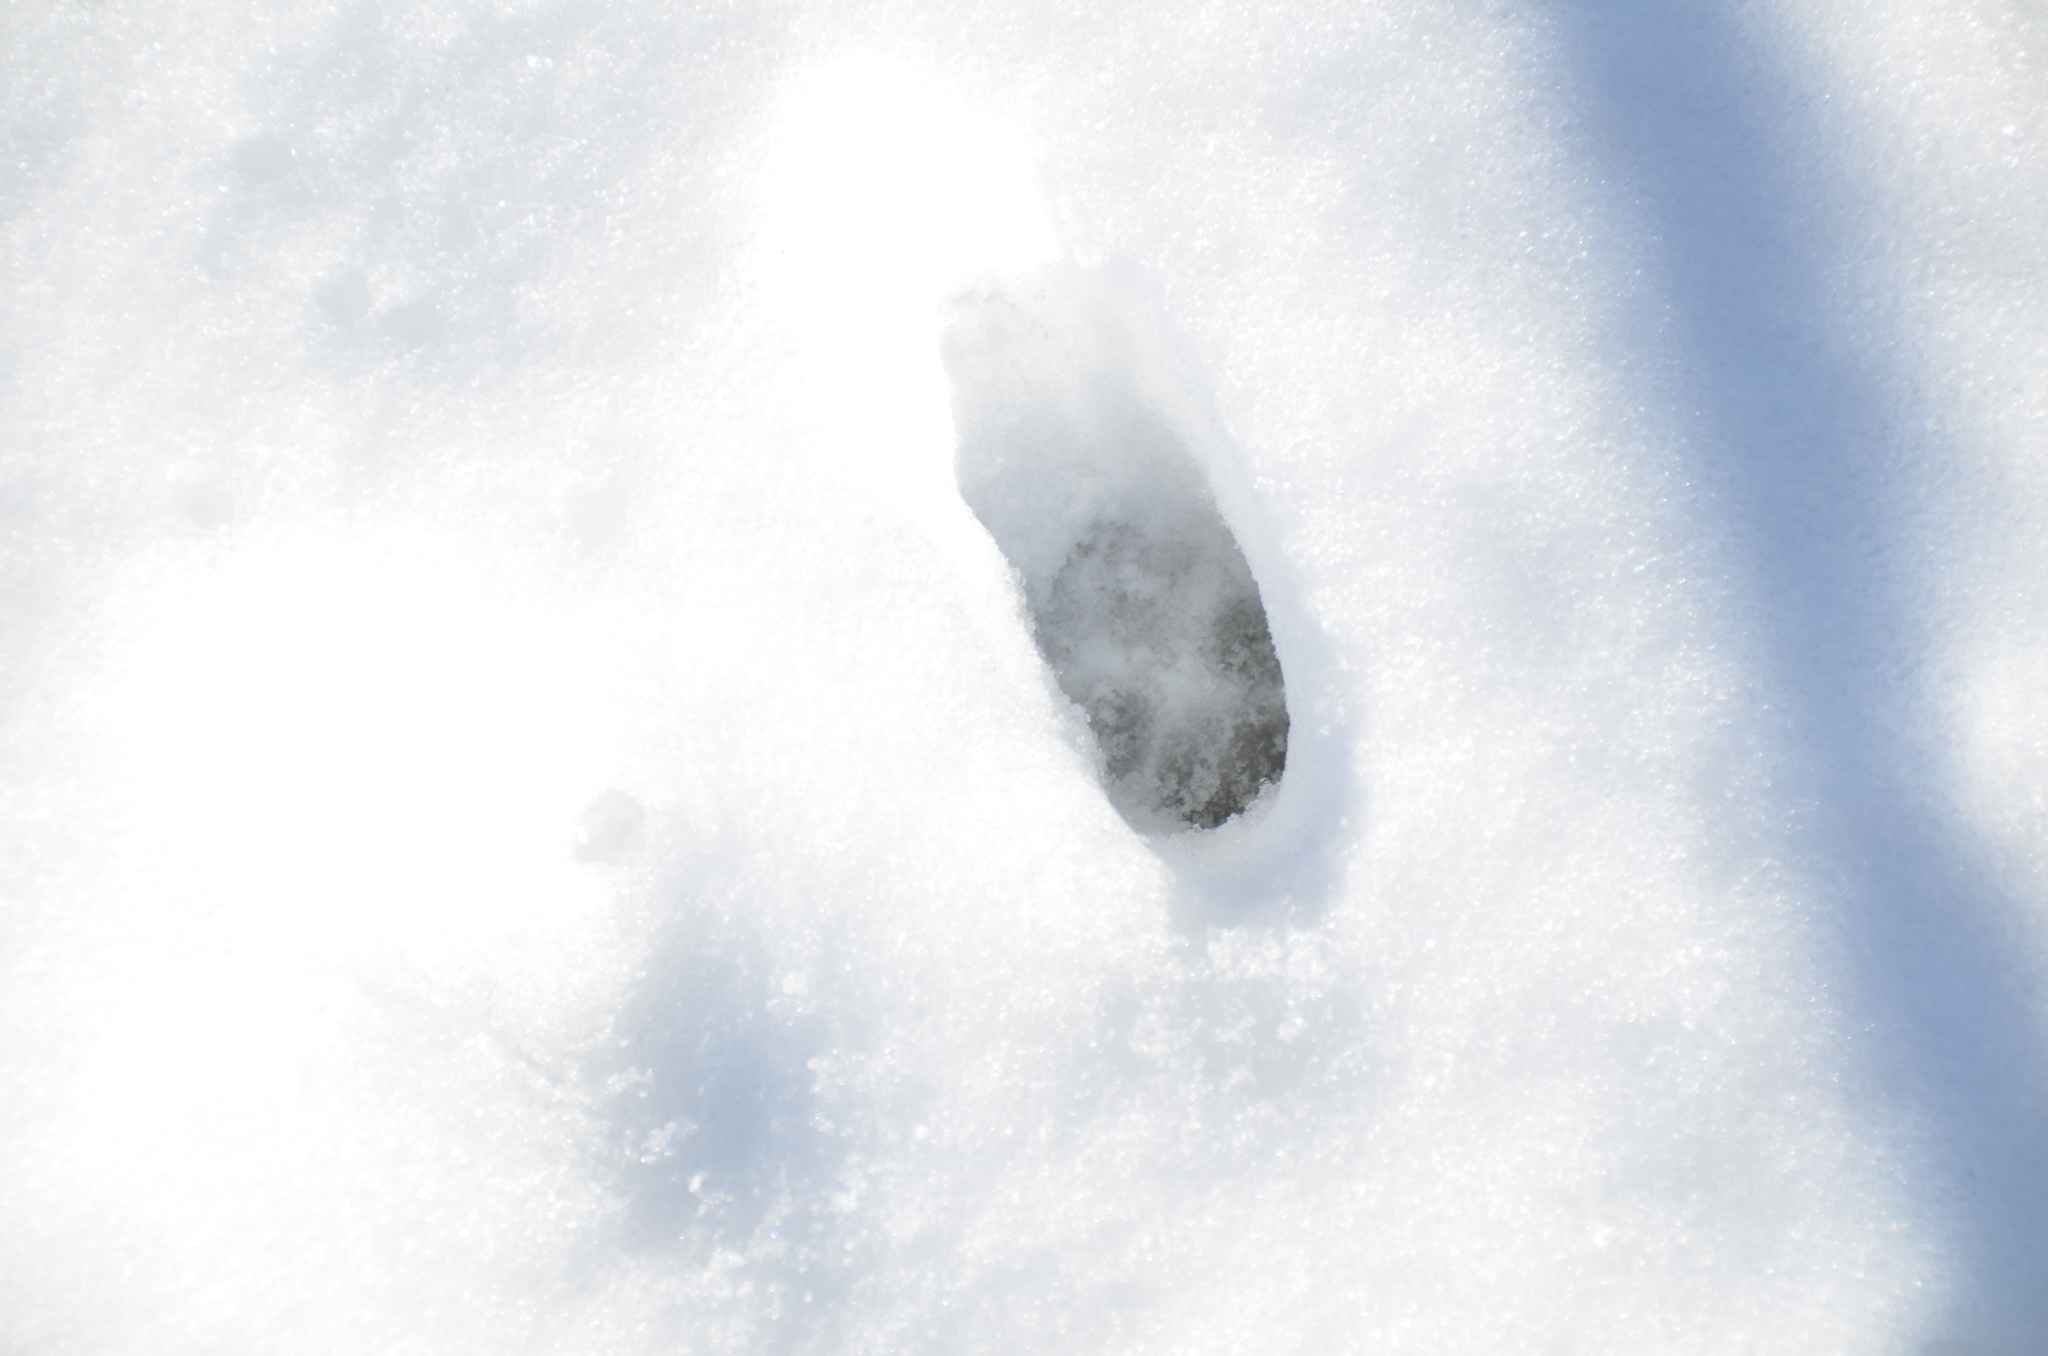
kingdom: Animalia
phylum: Chordata
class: Mammalia
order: Carnivora
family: Felidae
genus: Felis
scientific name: Felis catus
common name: Domestic cat
